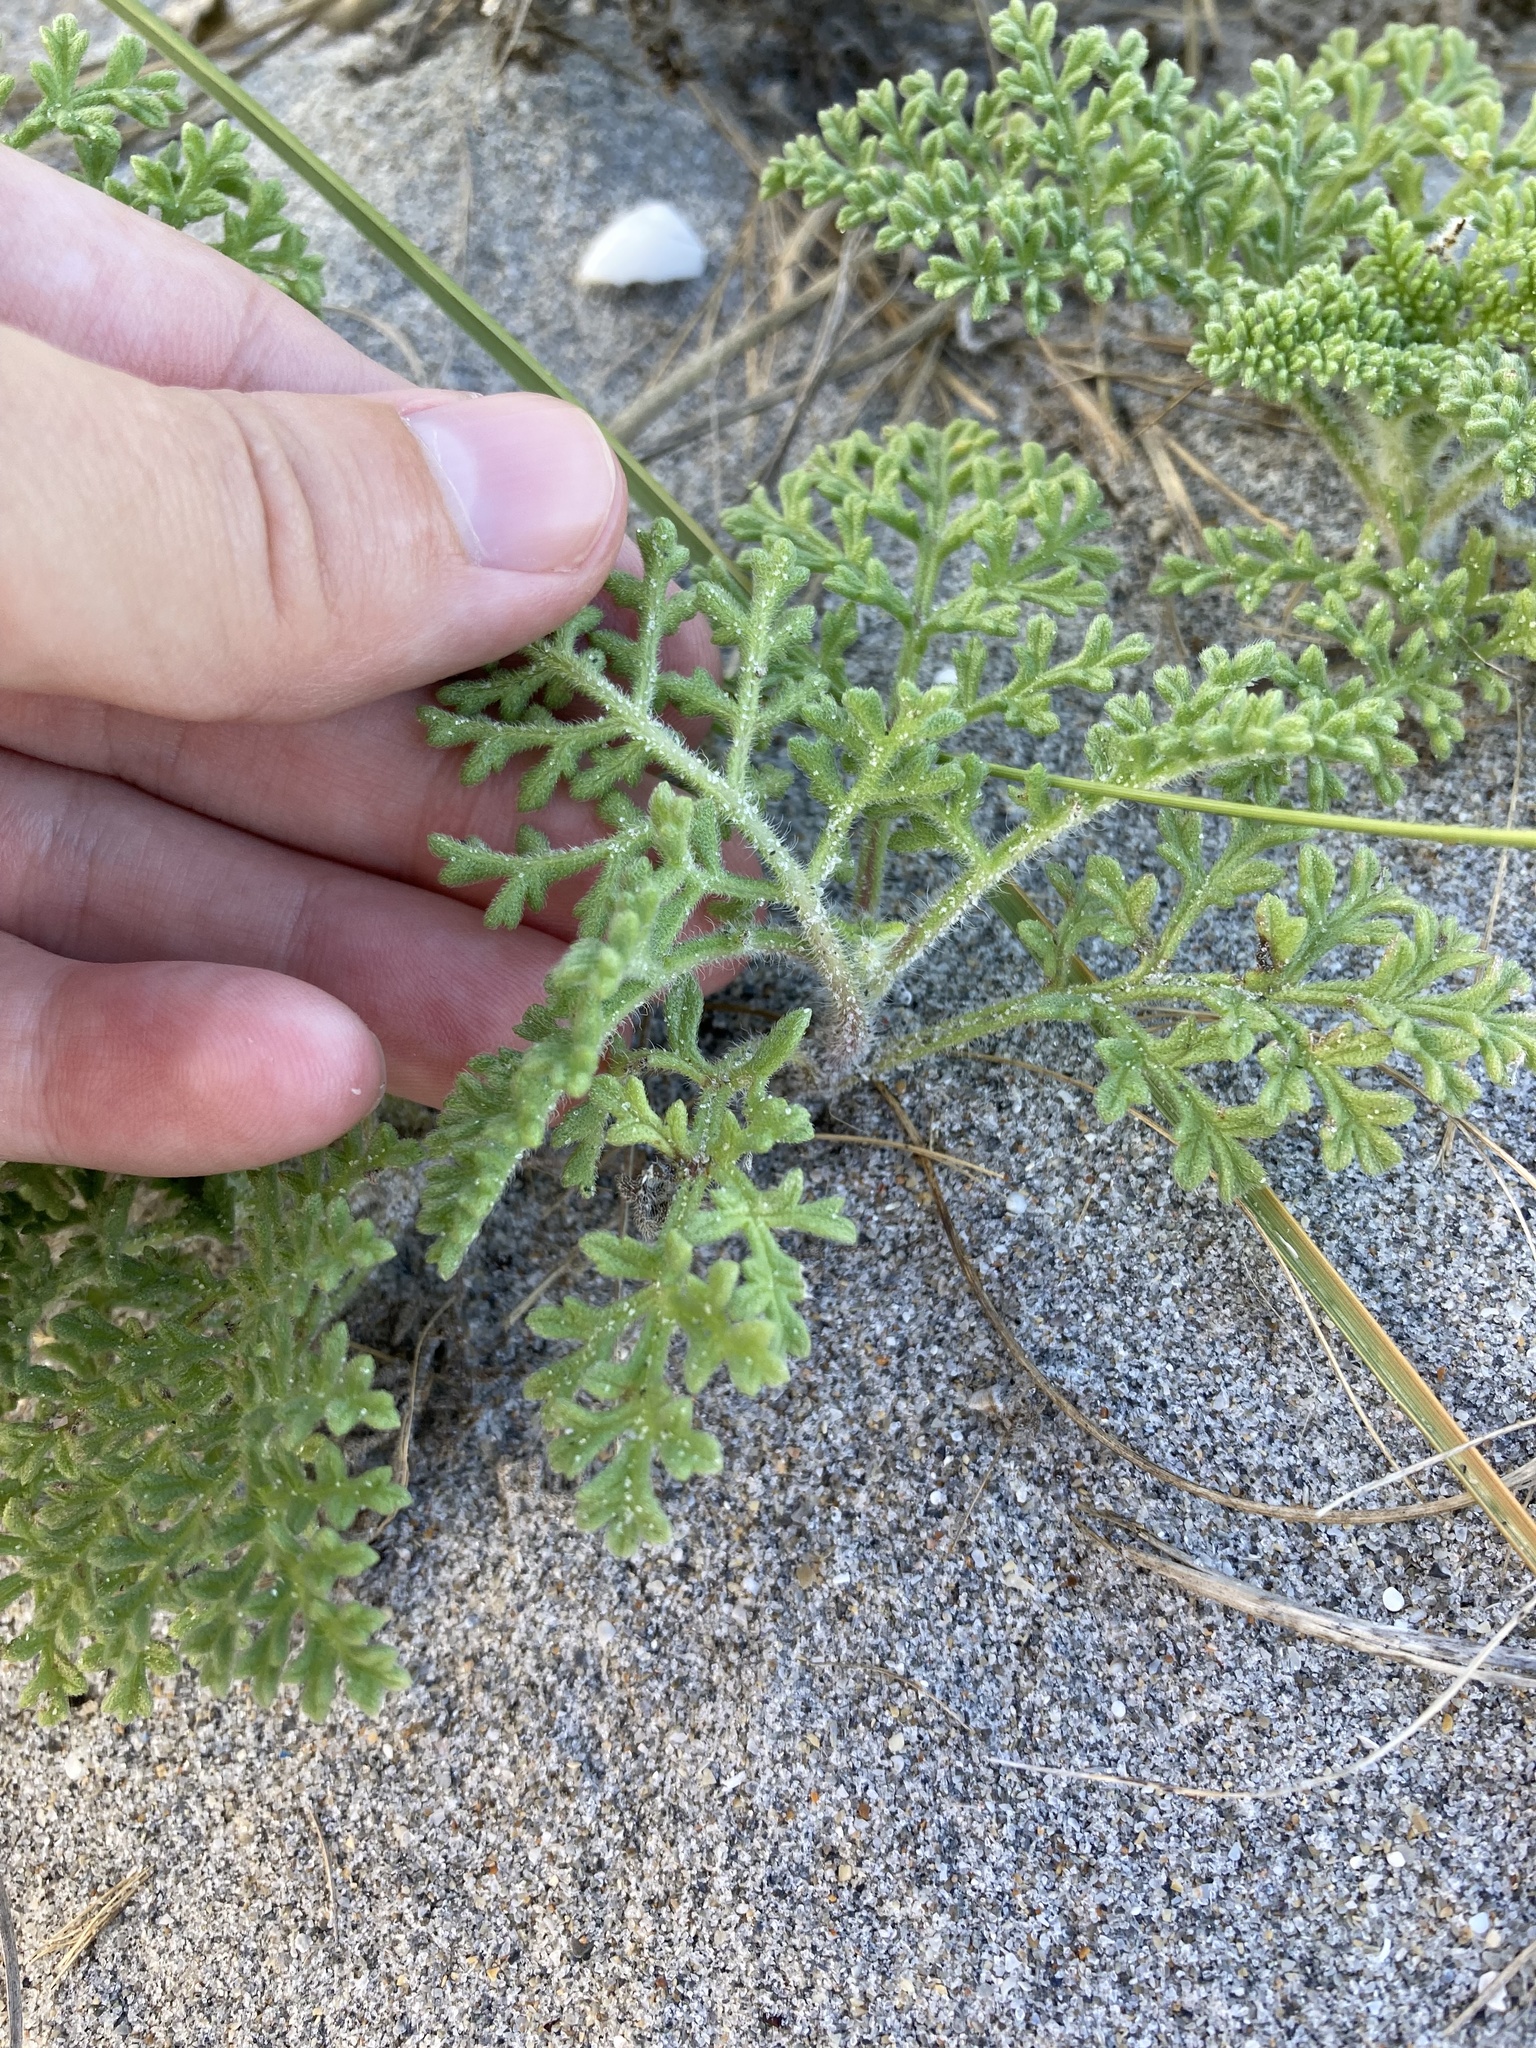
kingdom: Plantae
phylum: Tracheophyta
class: Magnoliopsida
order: Asterales
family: Asteraceae
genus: Ambrosia
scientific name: Ambrosia hispida
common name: Coastal ragweed
